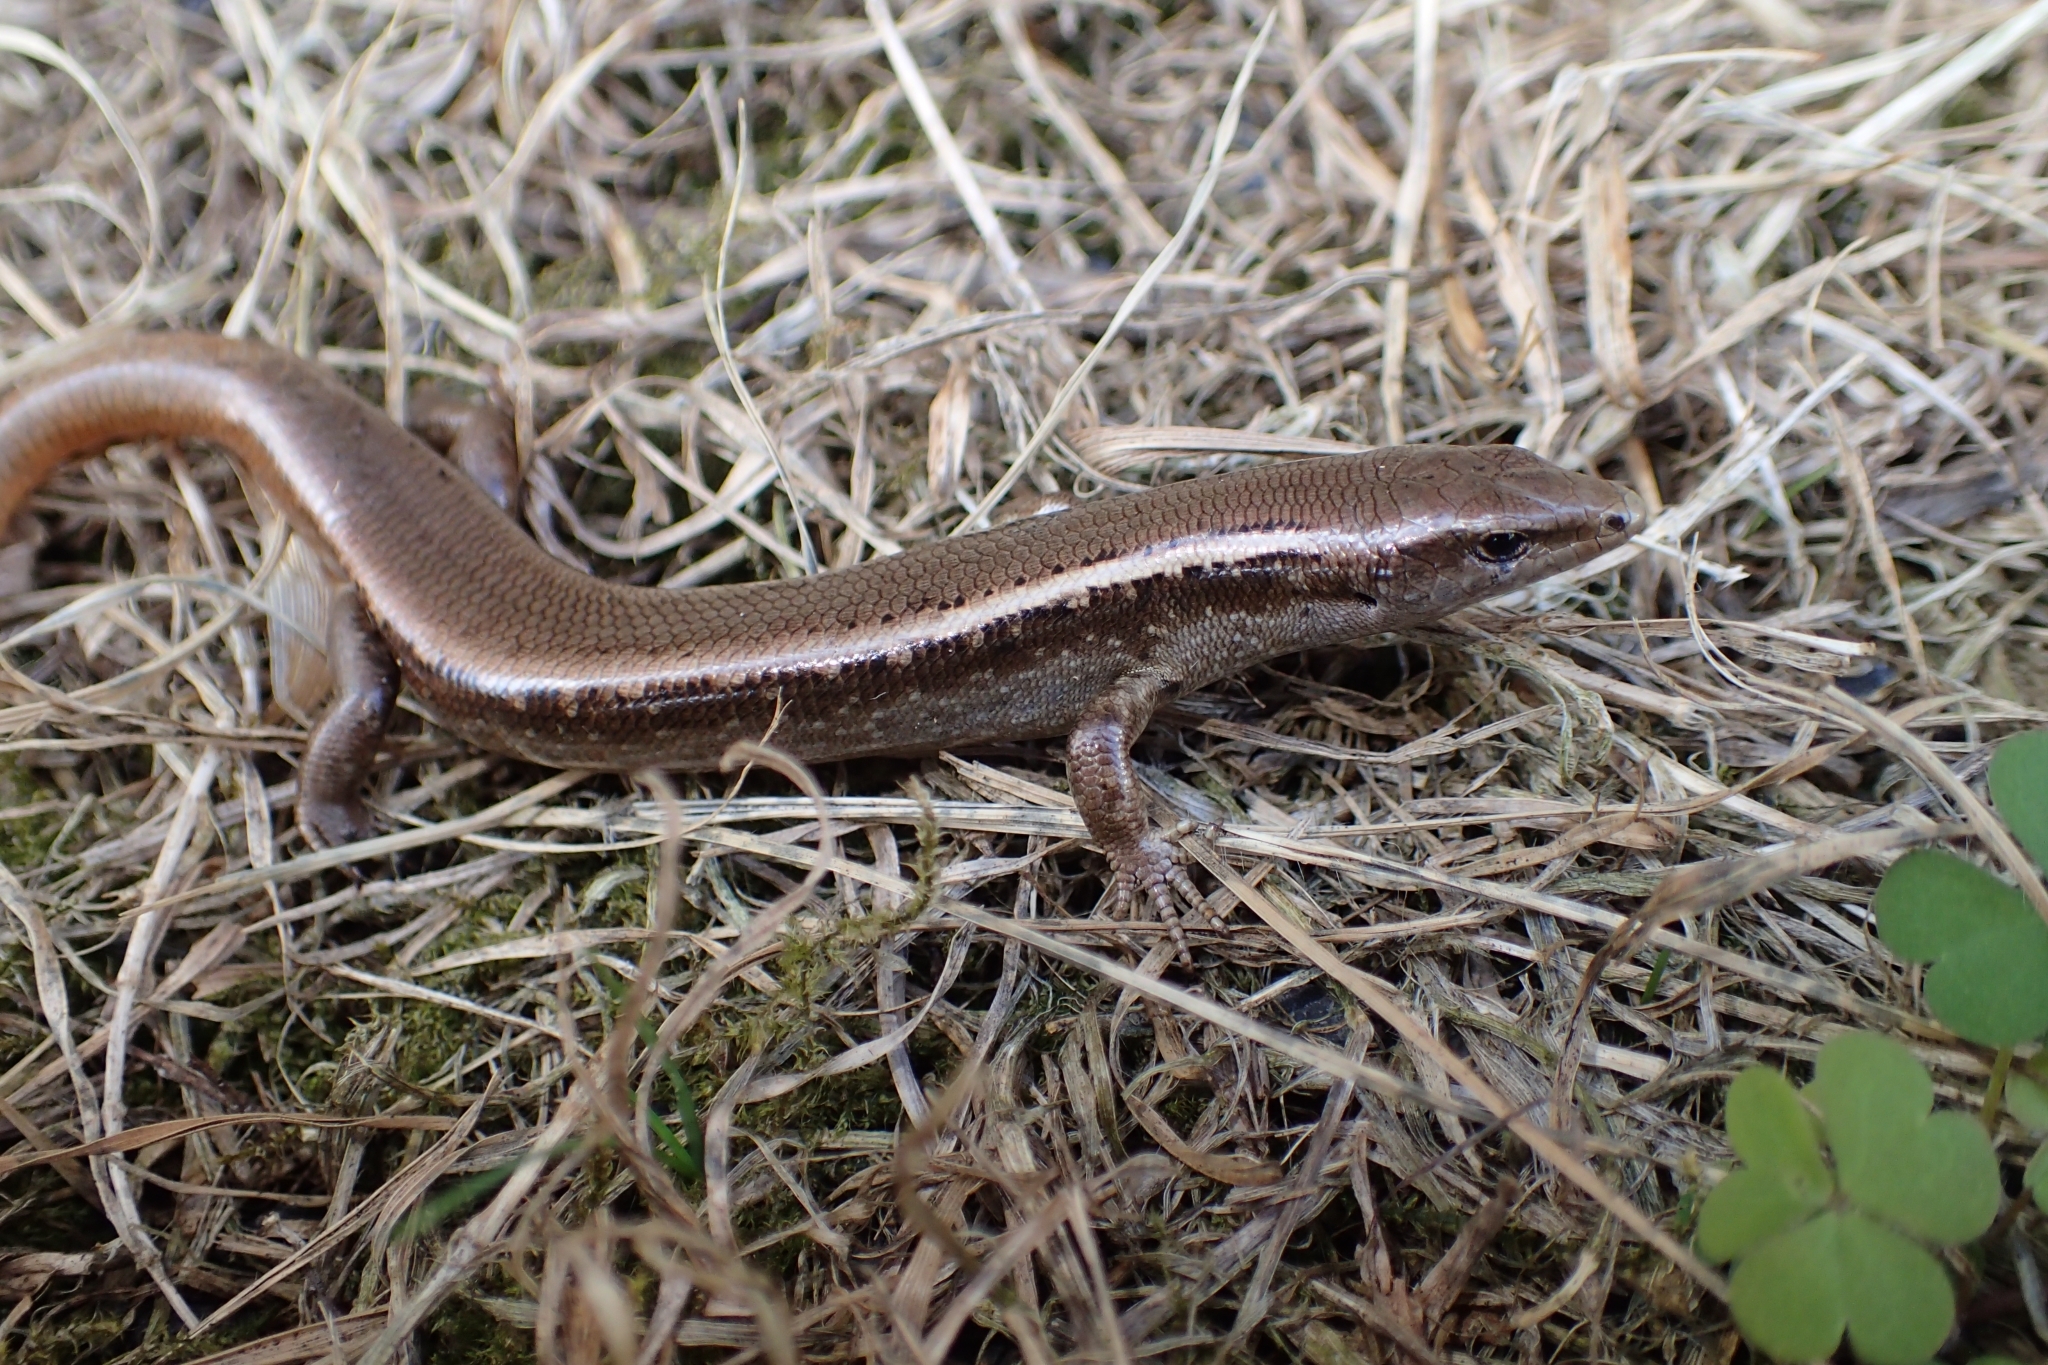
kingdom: Animalia
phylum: Chordata
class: Squamata
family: Scincidae
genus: Oligosoma
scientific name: Oligosoma smithi
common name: Shore skink
